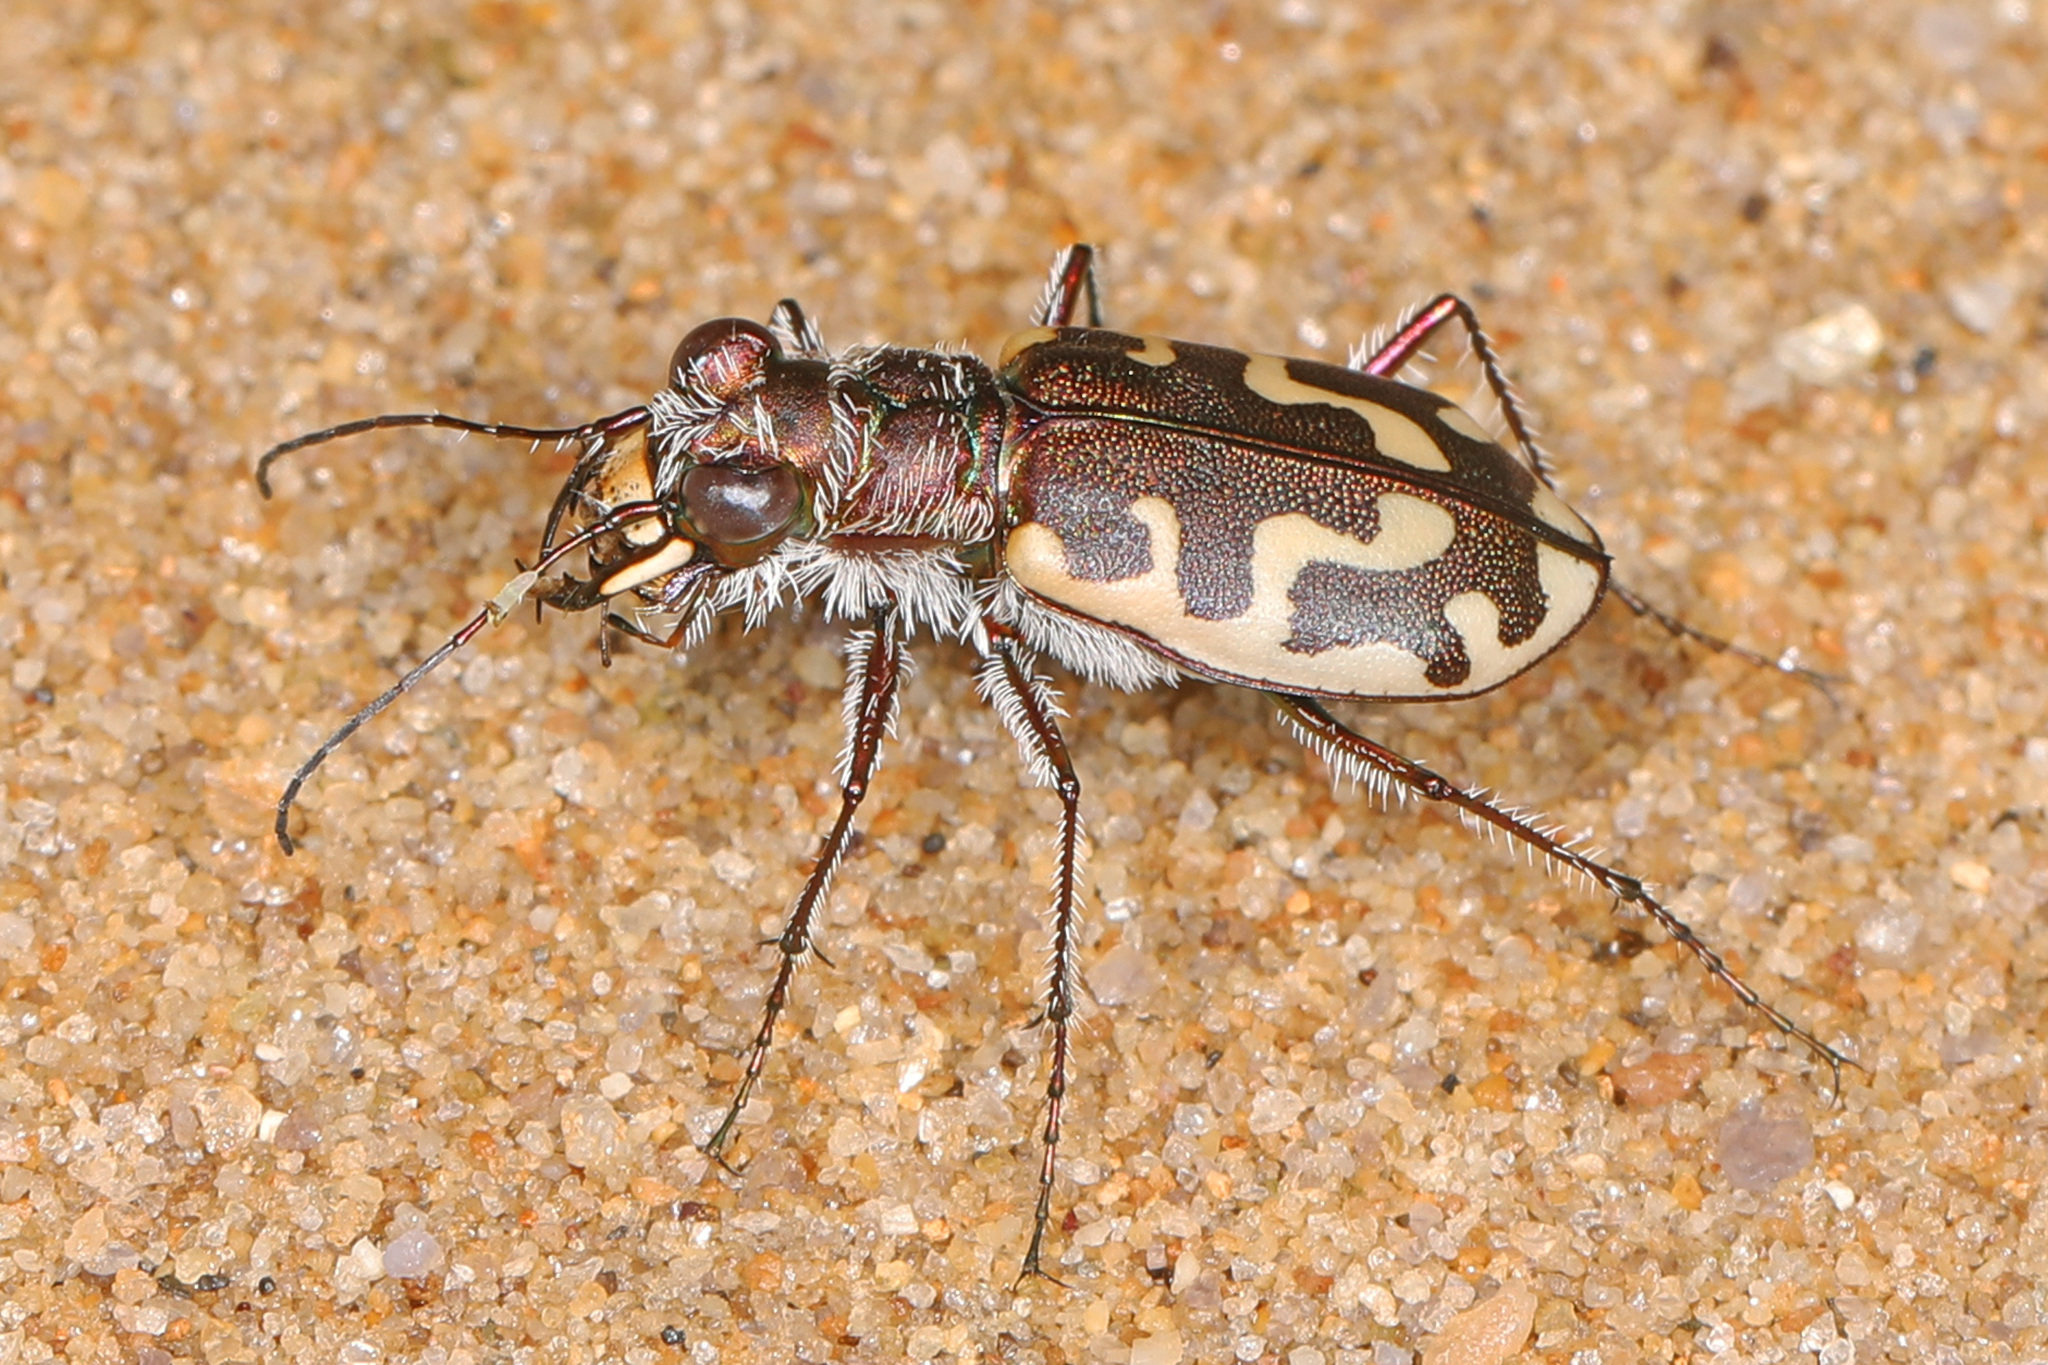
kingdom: Animalia
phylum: Arthropoda
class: Insecta
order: Coleoptera
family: Carabidae
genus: Cicindela
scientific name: Cicindela hirticollis
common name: Hairy-necked tiger beetle
